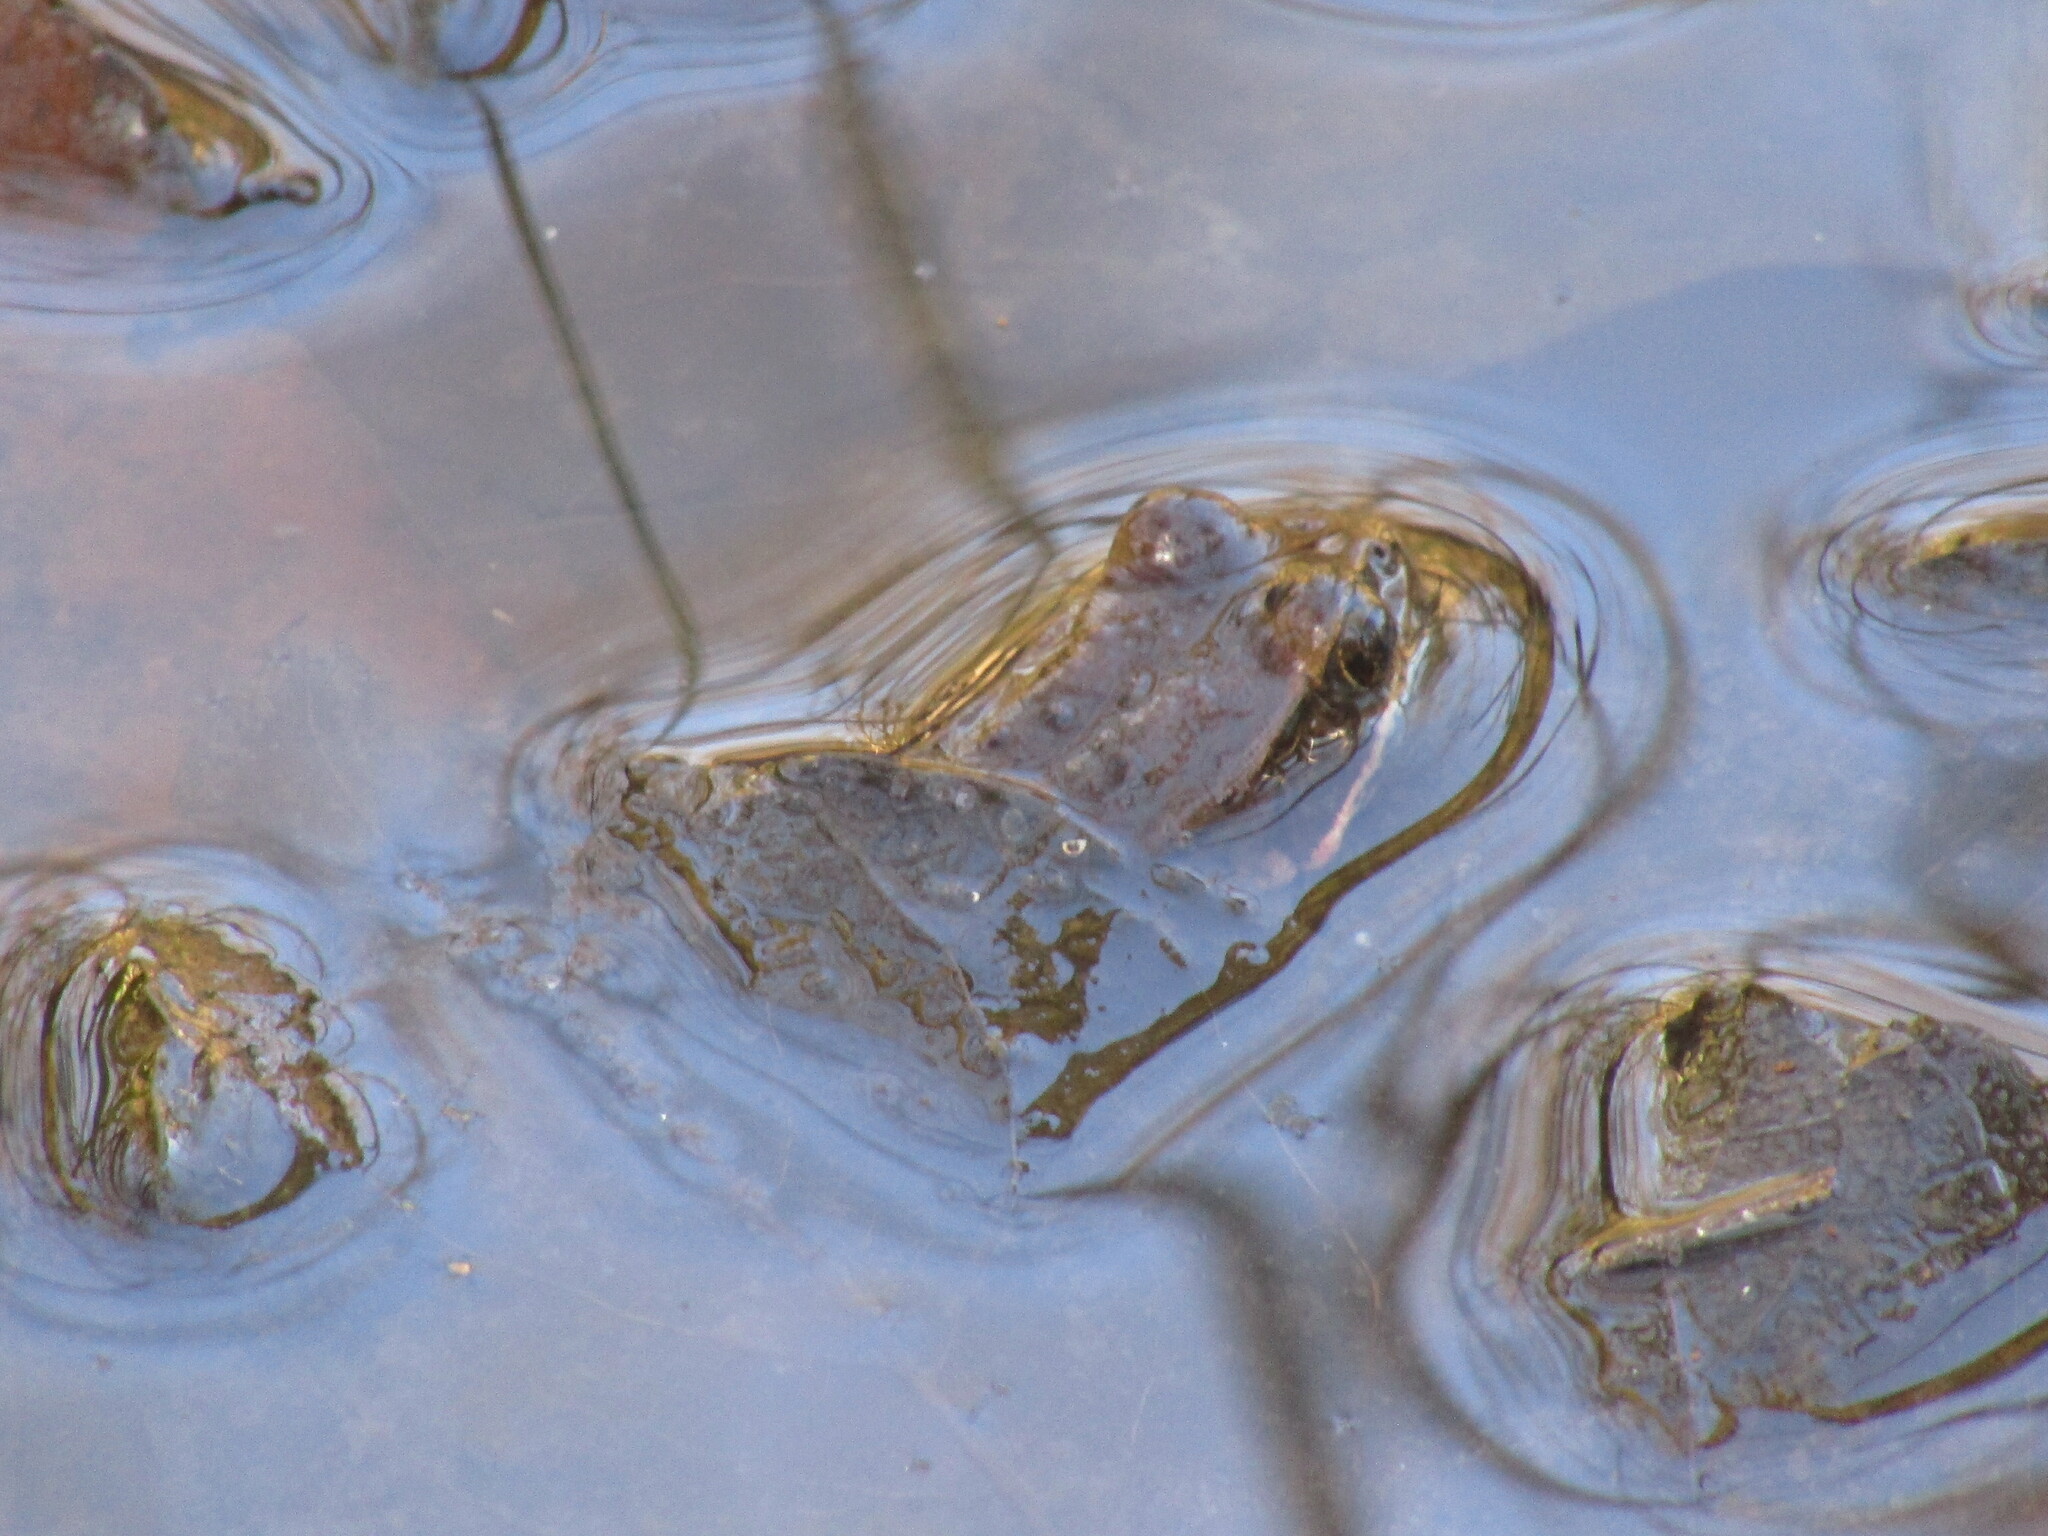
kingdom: Animalia
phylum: Chordata
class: Amphibia
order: Anura
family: Ranidae
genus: Rana
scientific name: Rana aurora
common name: Red-legged frog
